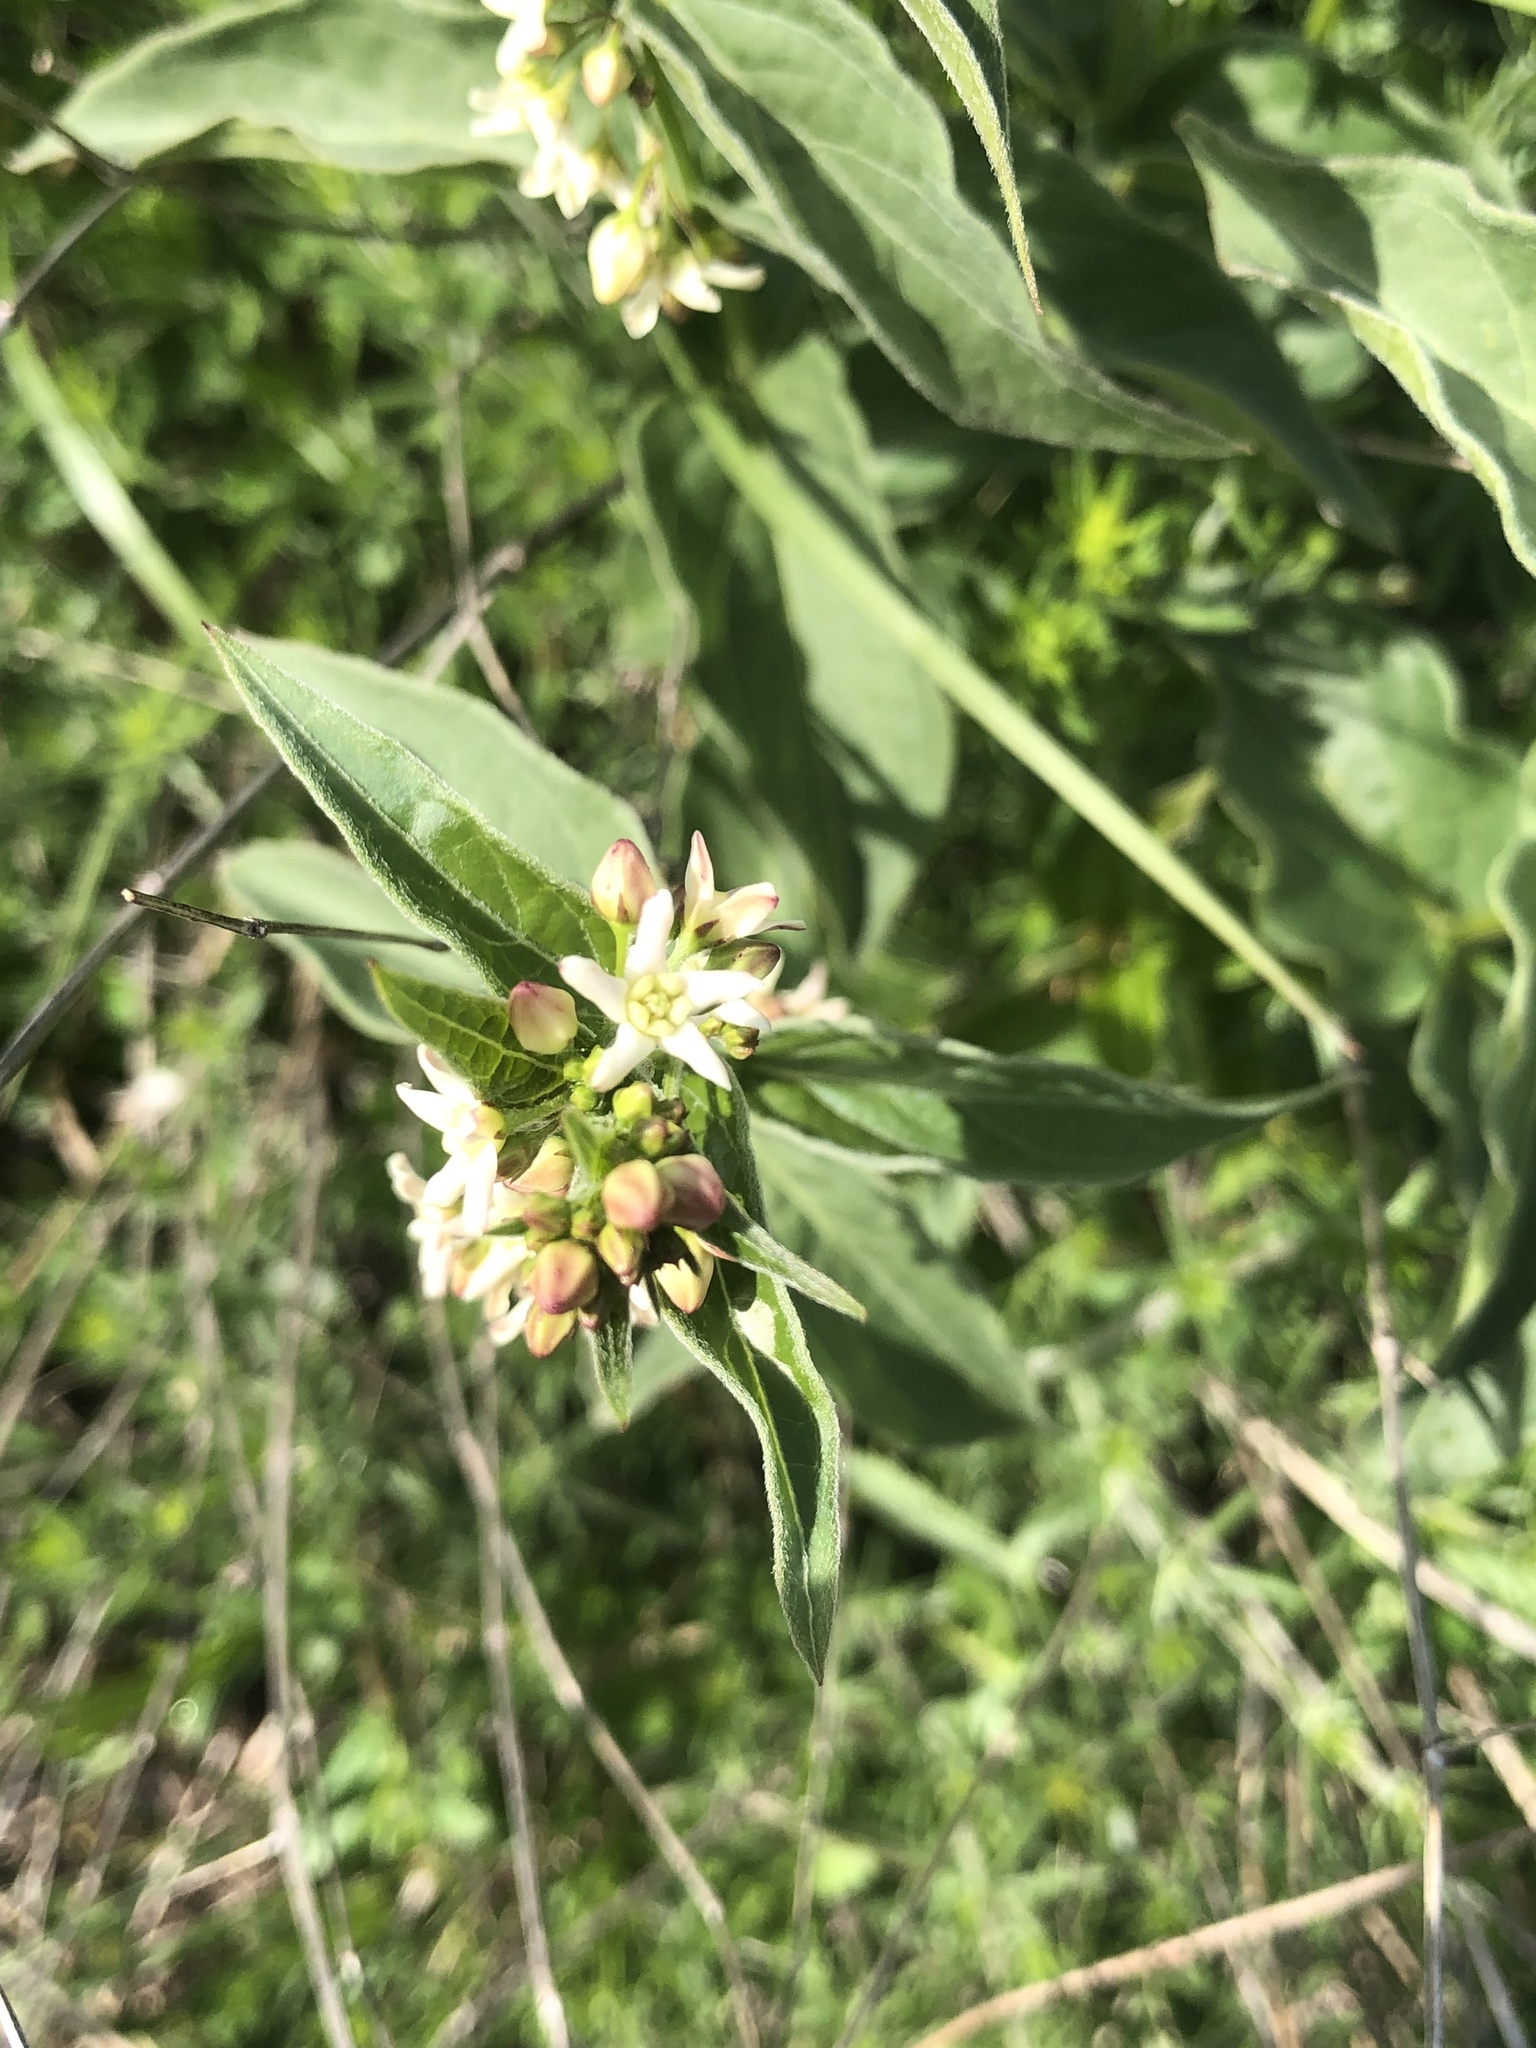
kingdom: Plantae
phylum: Tracheophyta
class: Magnoliopsida
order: Gentianales
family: Apocynaceae
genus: Vincetoxicum
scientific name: Vincetoxicum hirundinaria
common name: White swallowwort
